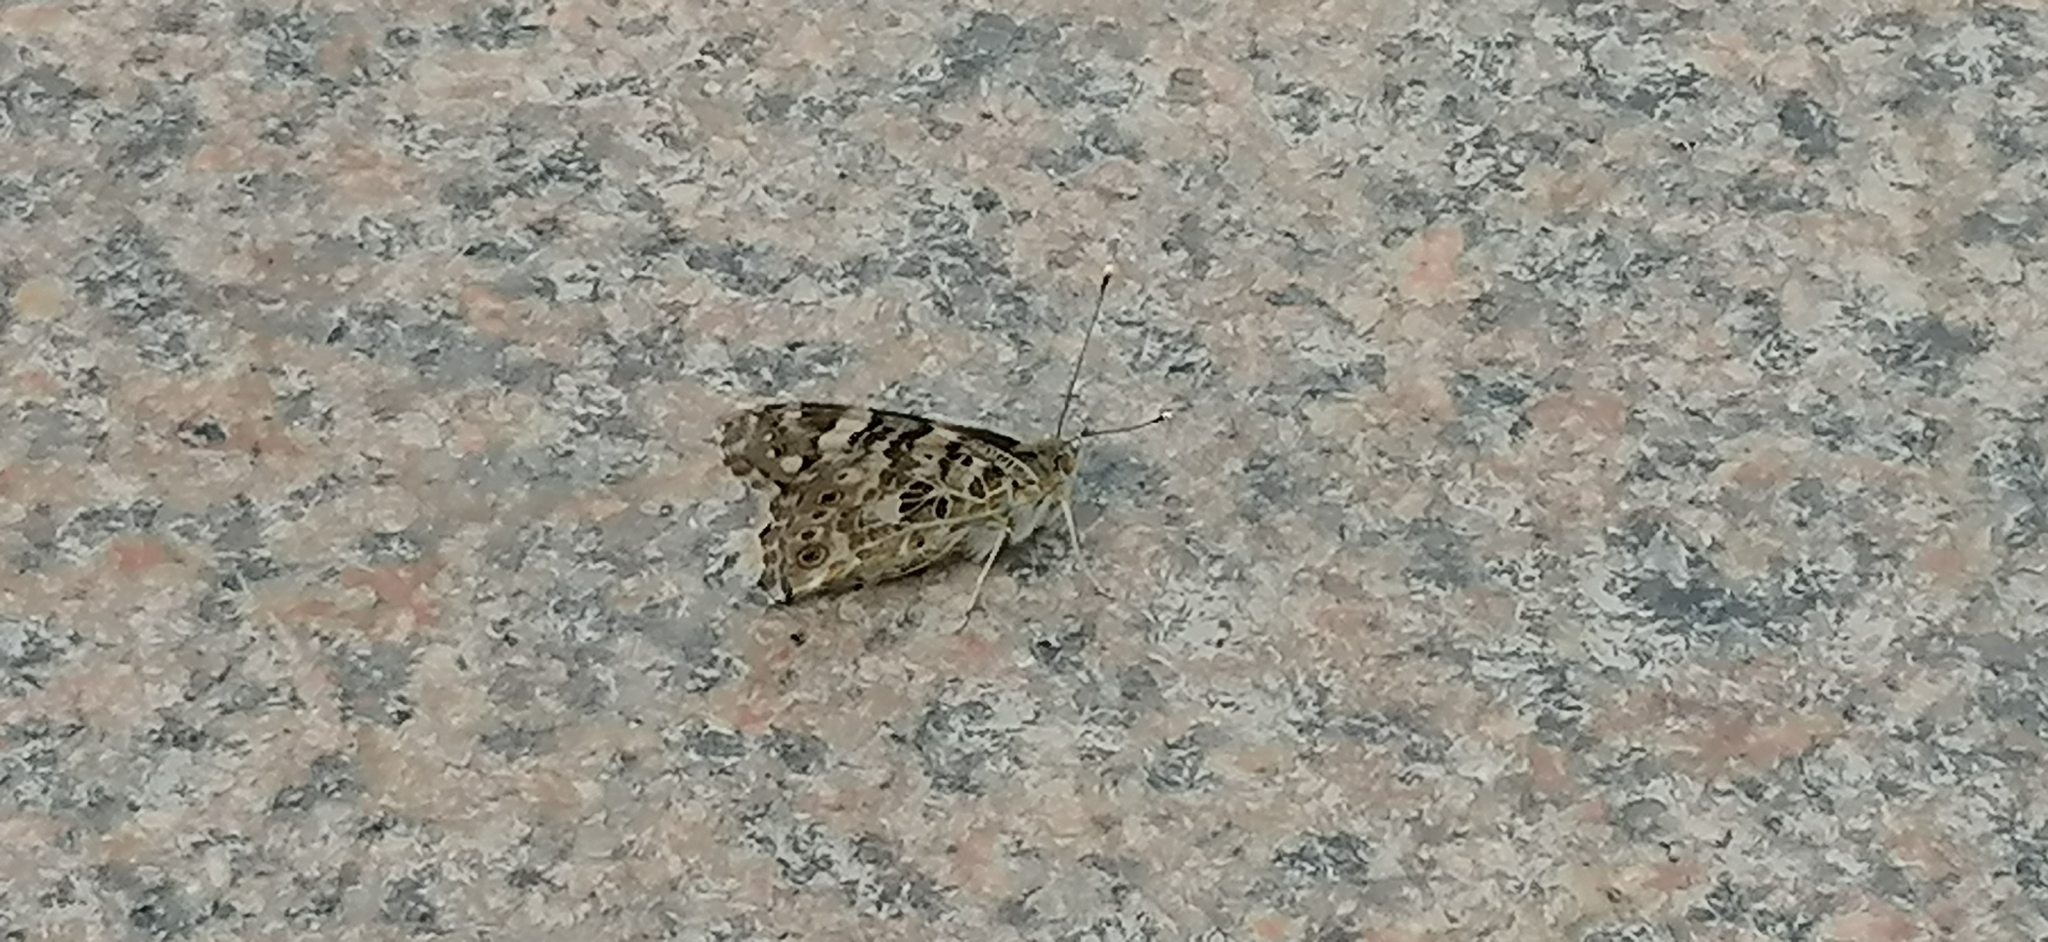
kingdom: Animalia
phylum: Arthropoda
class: Insecta
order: Lepidoptera
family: Nymphalidae
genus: Vanessa
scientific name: Vanessa cardui
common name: Painted lady
